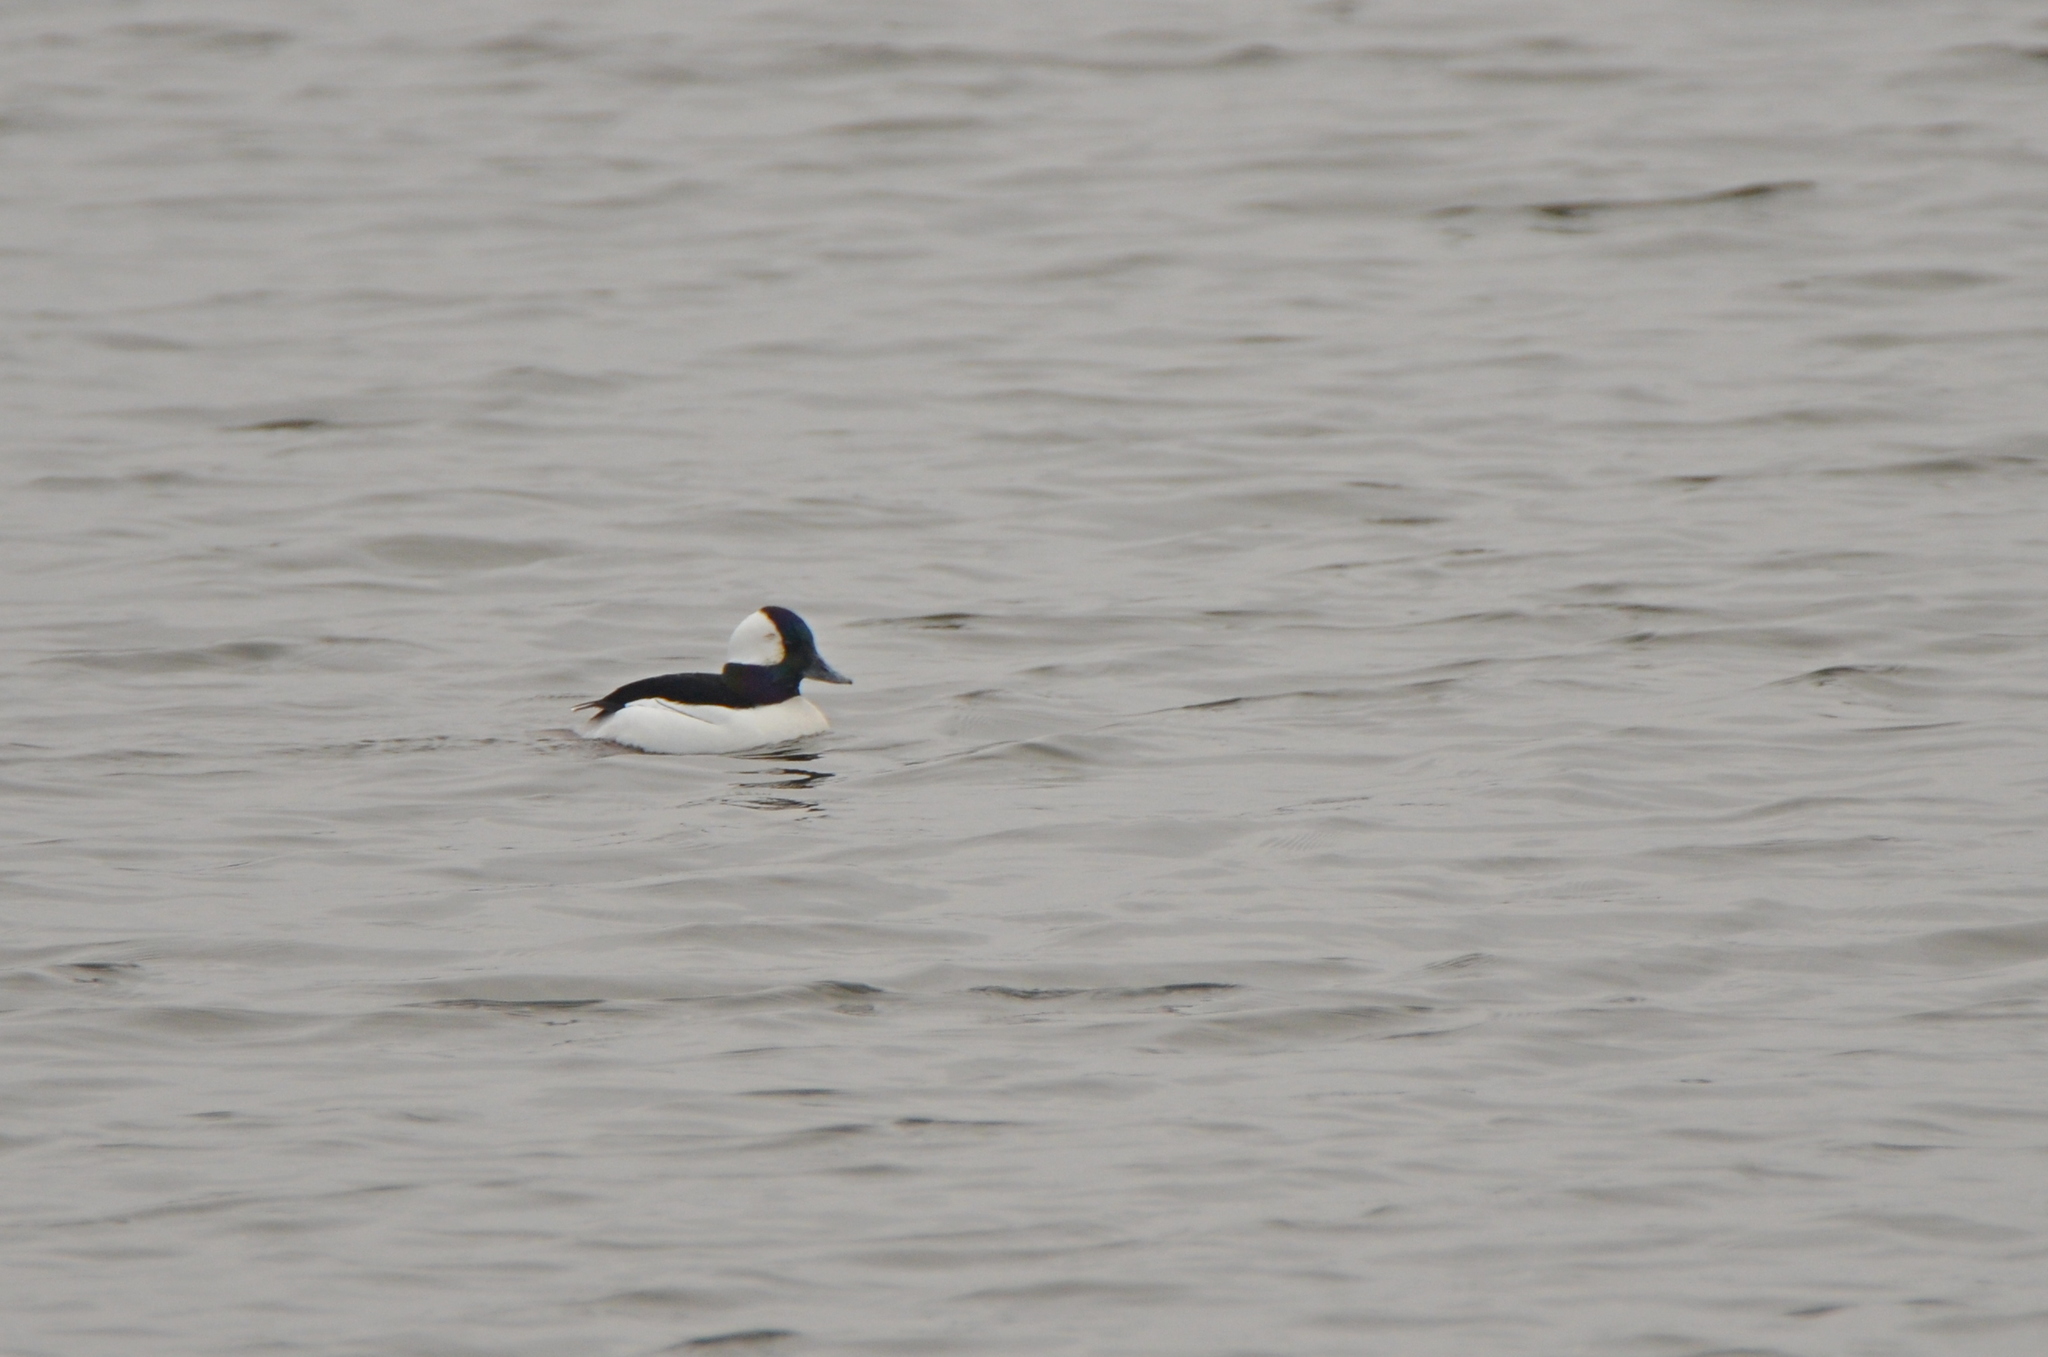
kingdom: Animalia
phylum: Chordata
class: Aves
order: Anseriformes
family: Anatidae
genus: Bucephala
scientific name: Bucephala albeola
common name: Bufflehead
